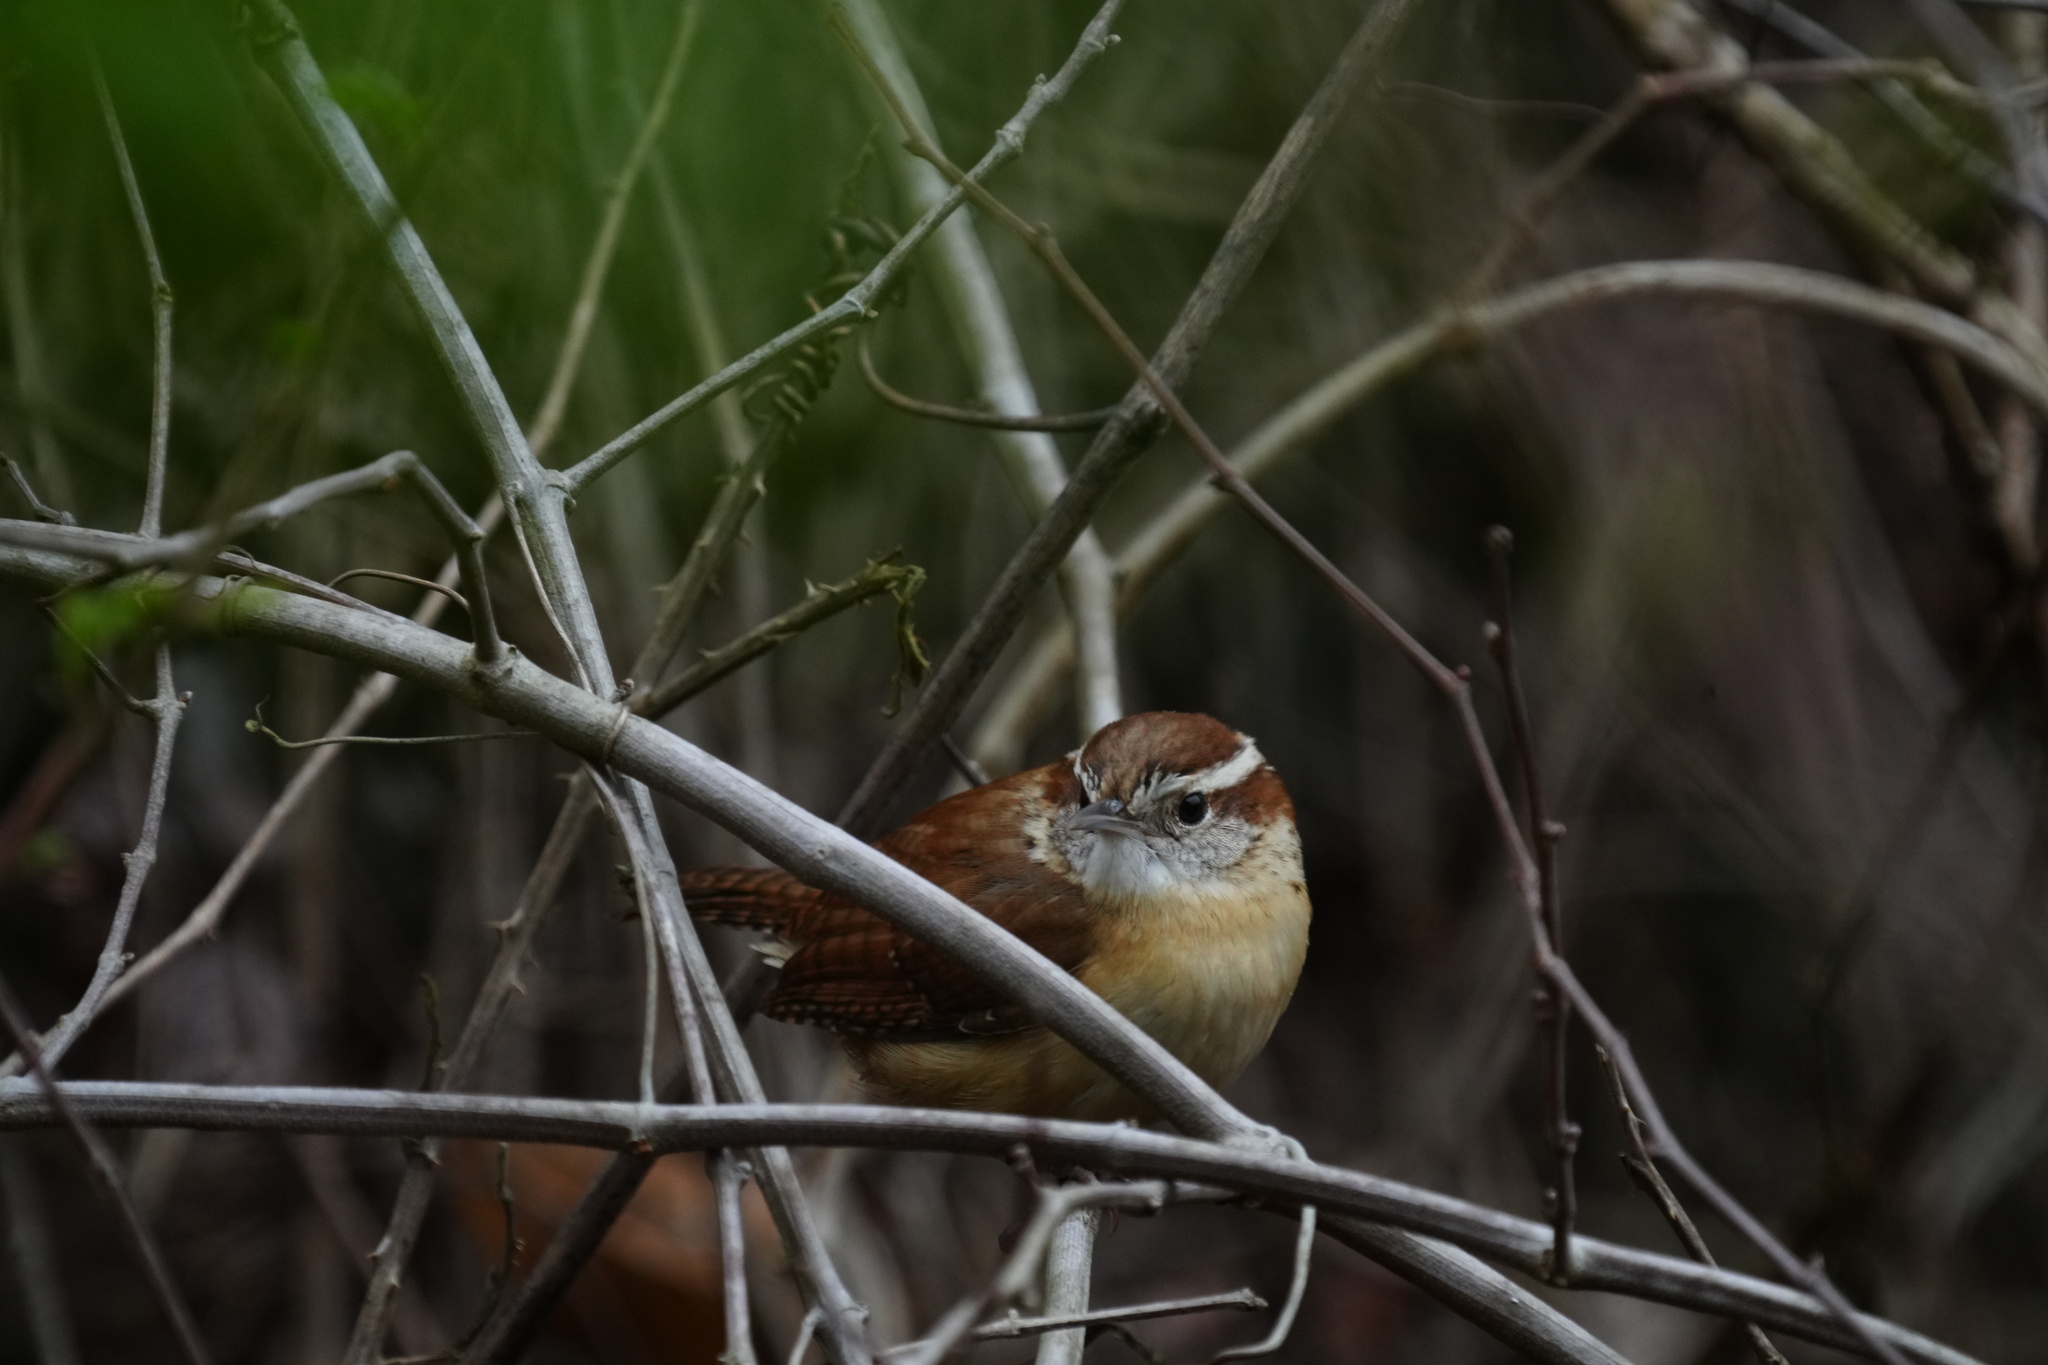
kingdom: Animalia
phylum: Chordata
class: Aves
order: Passeriformes
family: Troglodytidae
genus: Thryothorus
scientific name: Thryothorus ludovicianus
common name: Carolina wren
